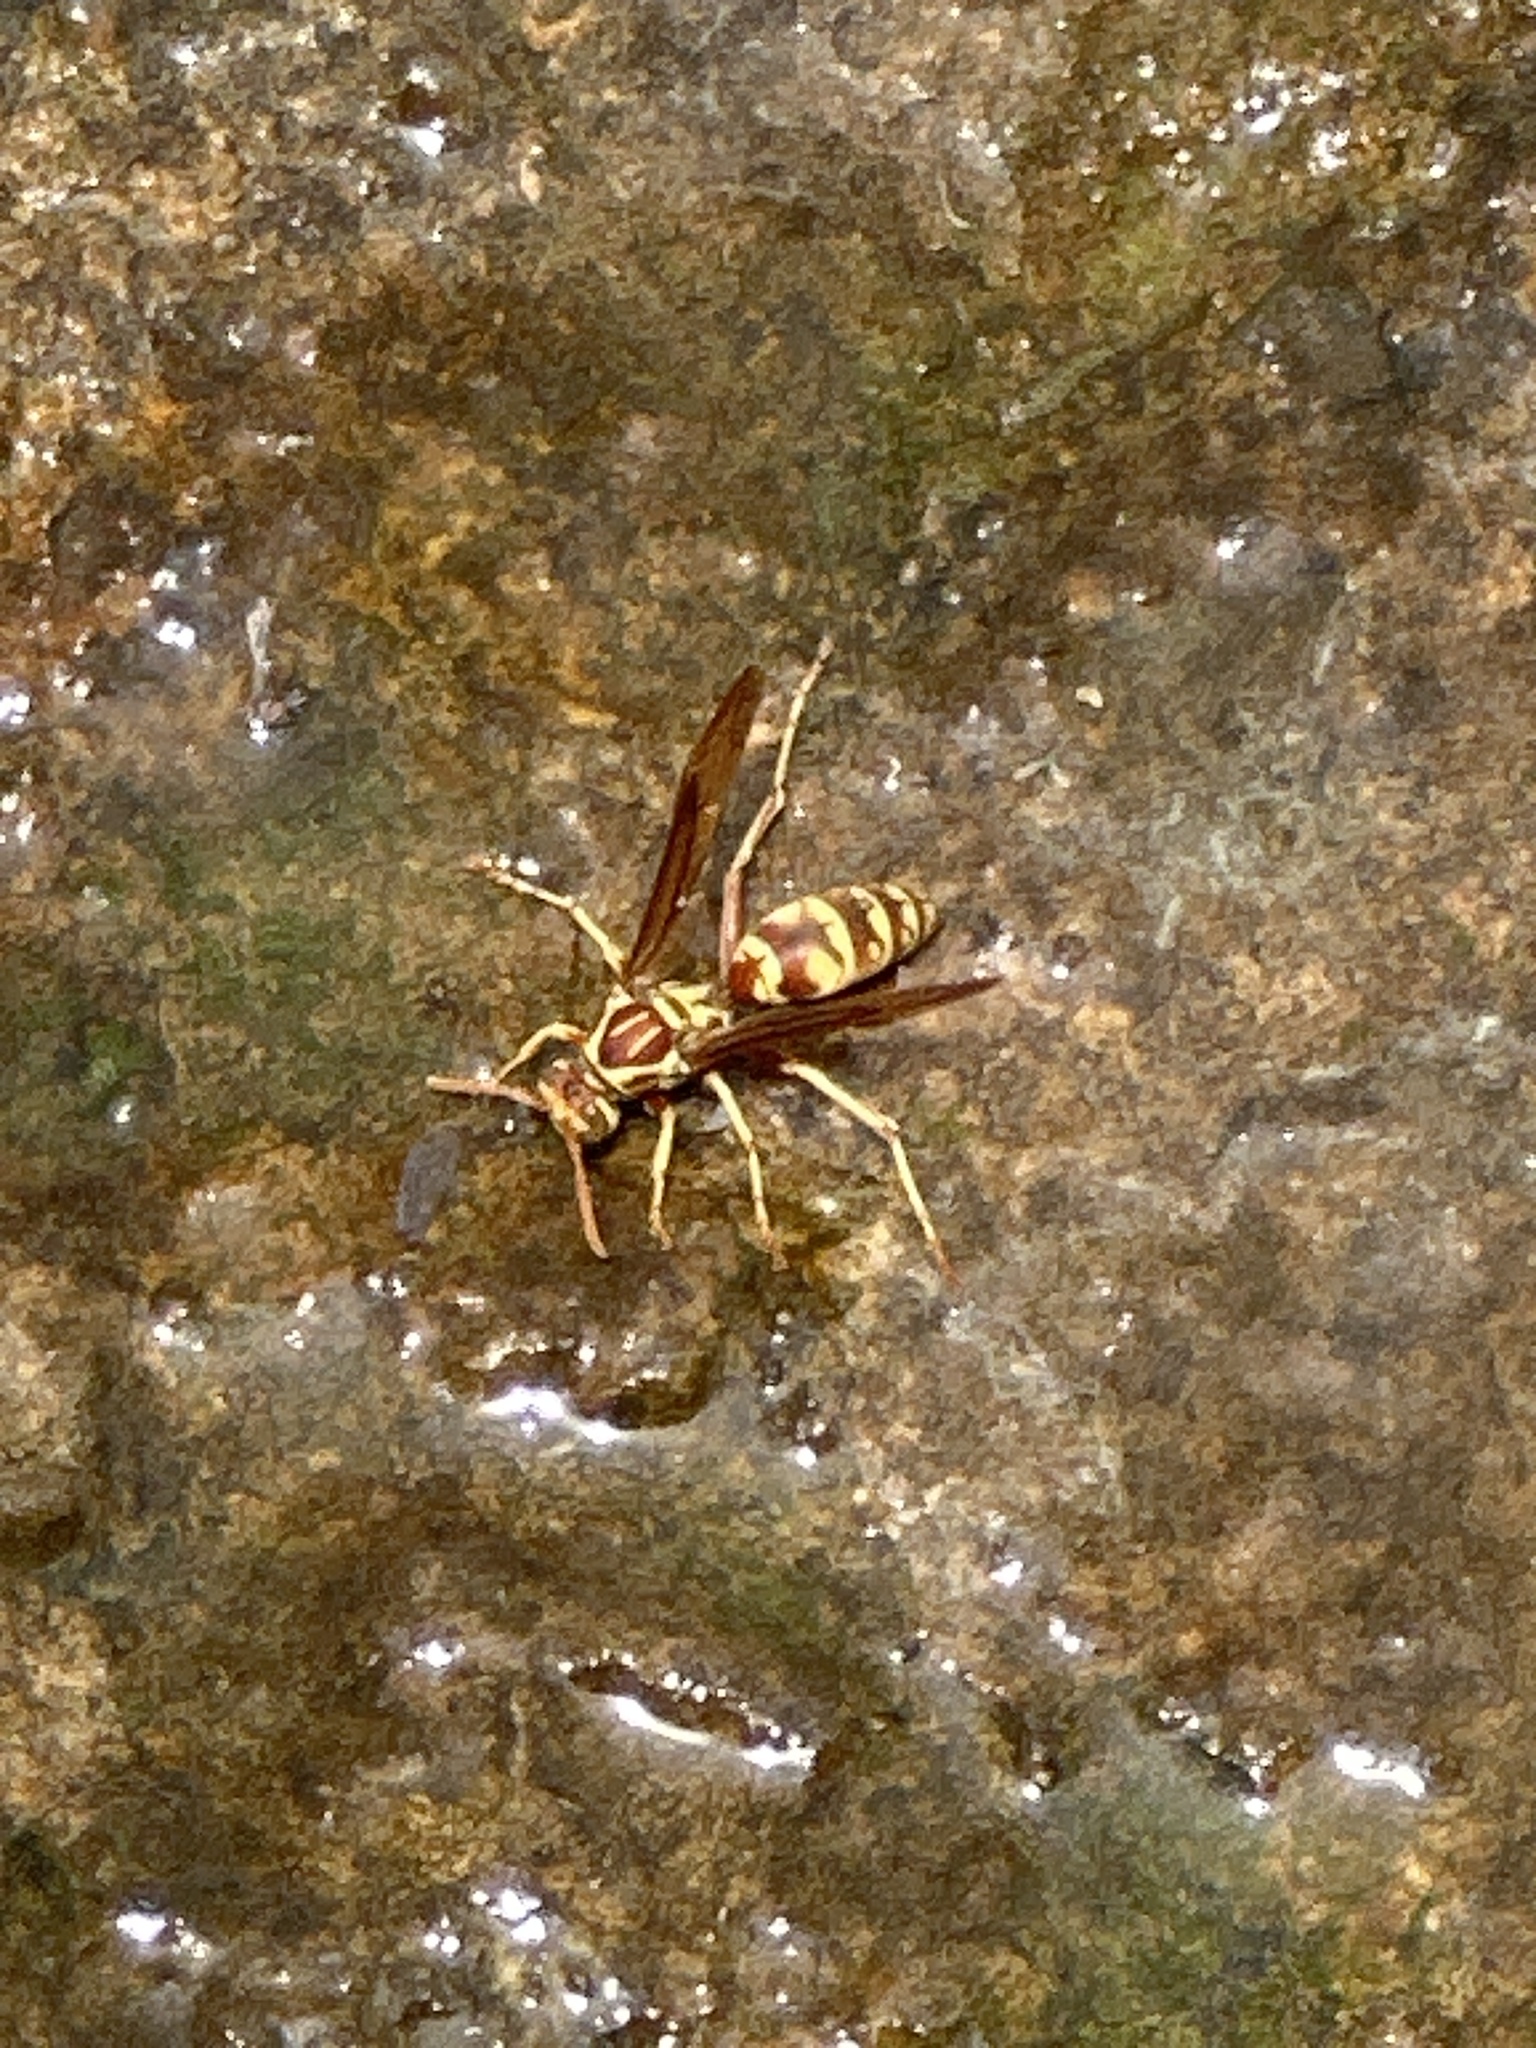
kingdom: Animalia
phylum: Arthropoda
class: Insecta
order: Hymenoptera
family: Eumenidae
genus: Polistes
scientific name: Polistes apachus
